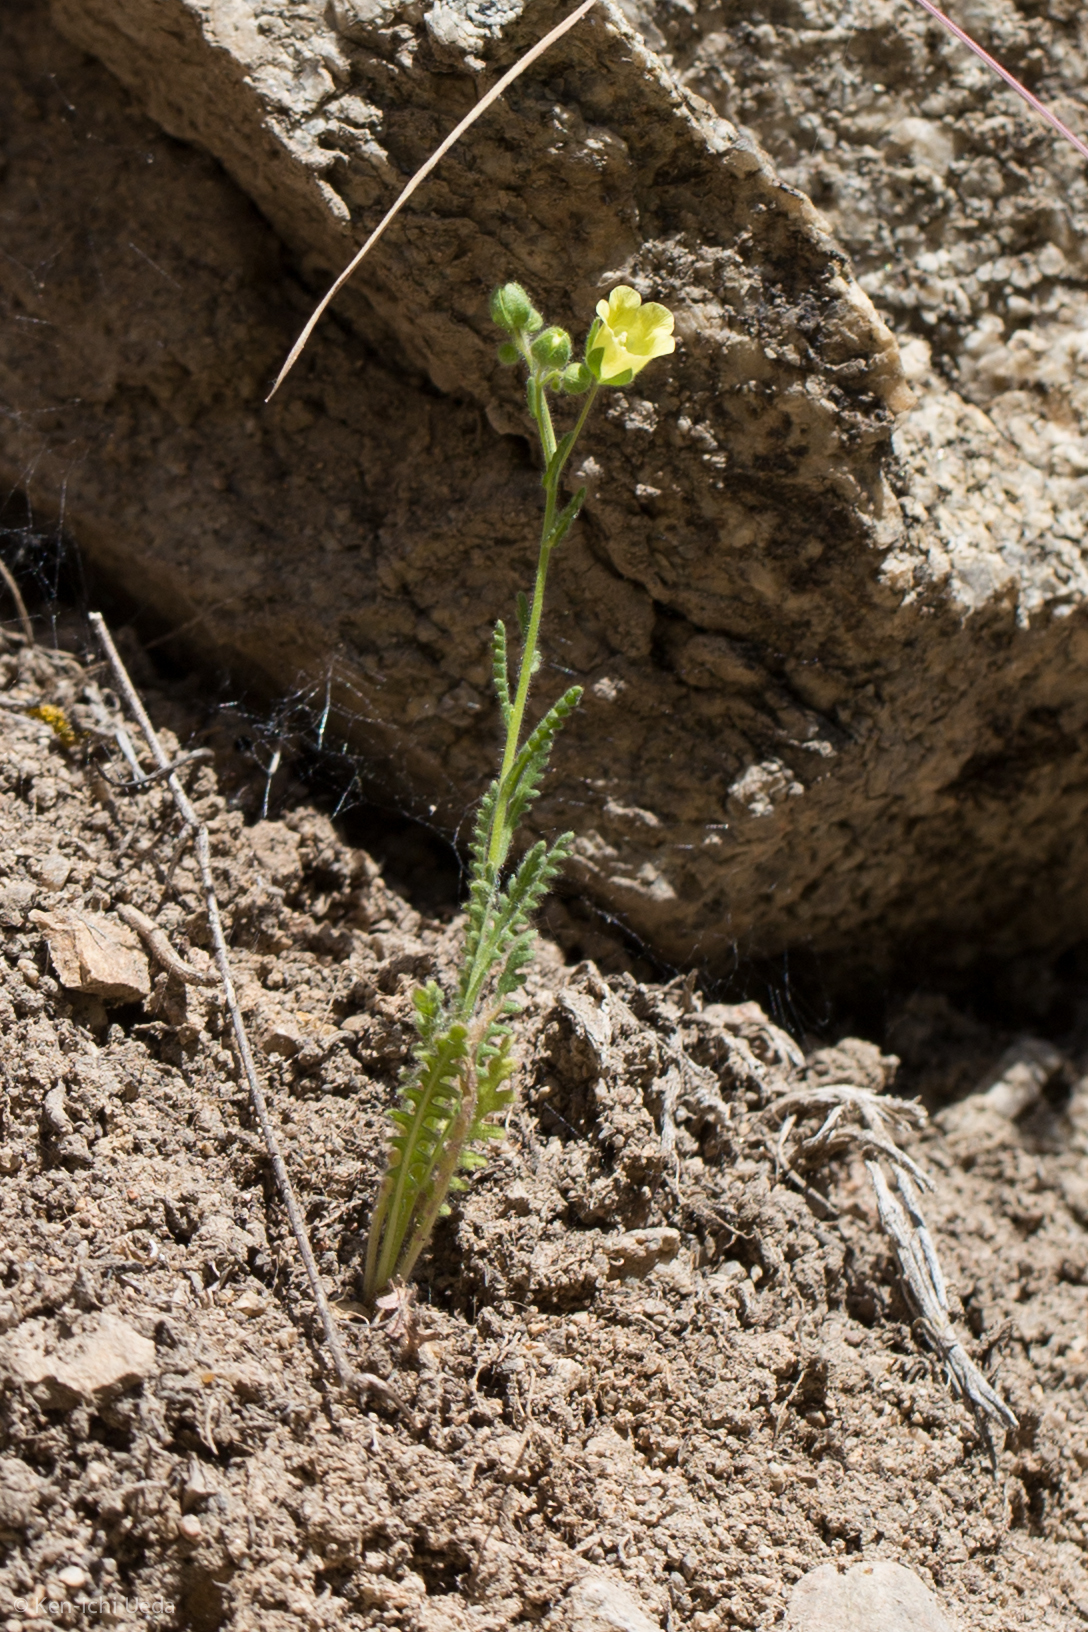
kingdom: Plantae
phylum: Tracheophyta
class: Magnoliopsida
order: Boraginales
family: Hydrophyllaceae
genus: Emmenanthe
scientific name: Emmenanthe penduliflora
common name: Whispering-bells
